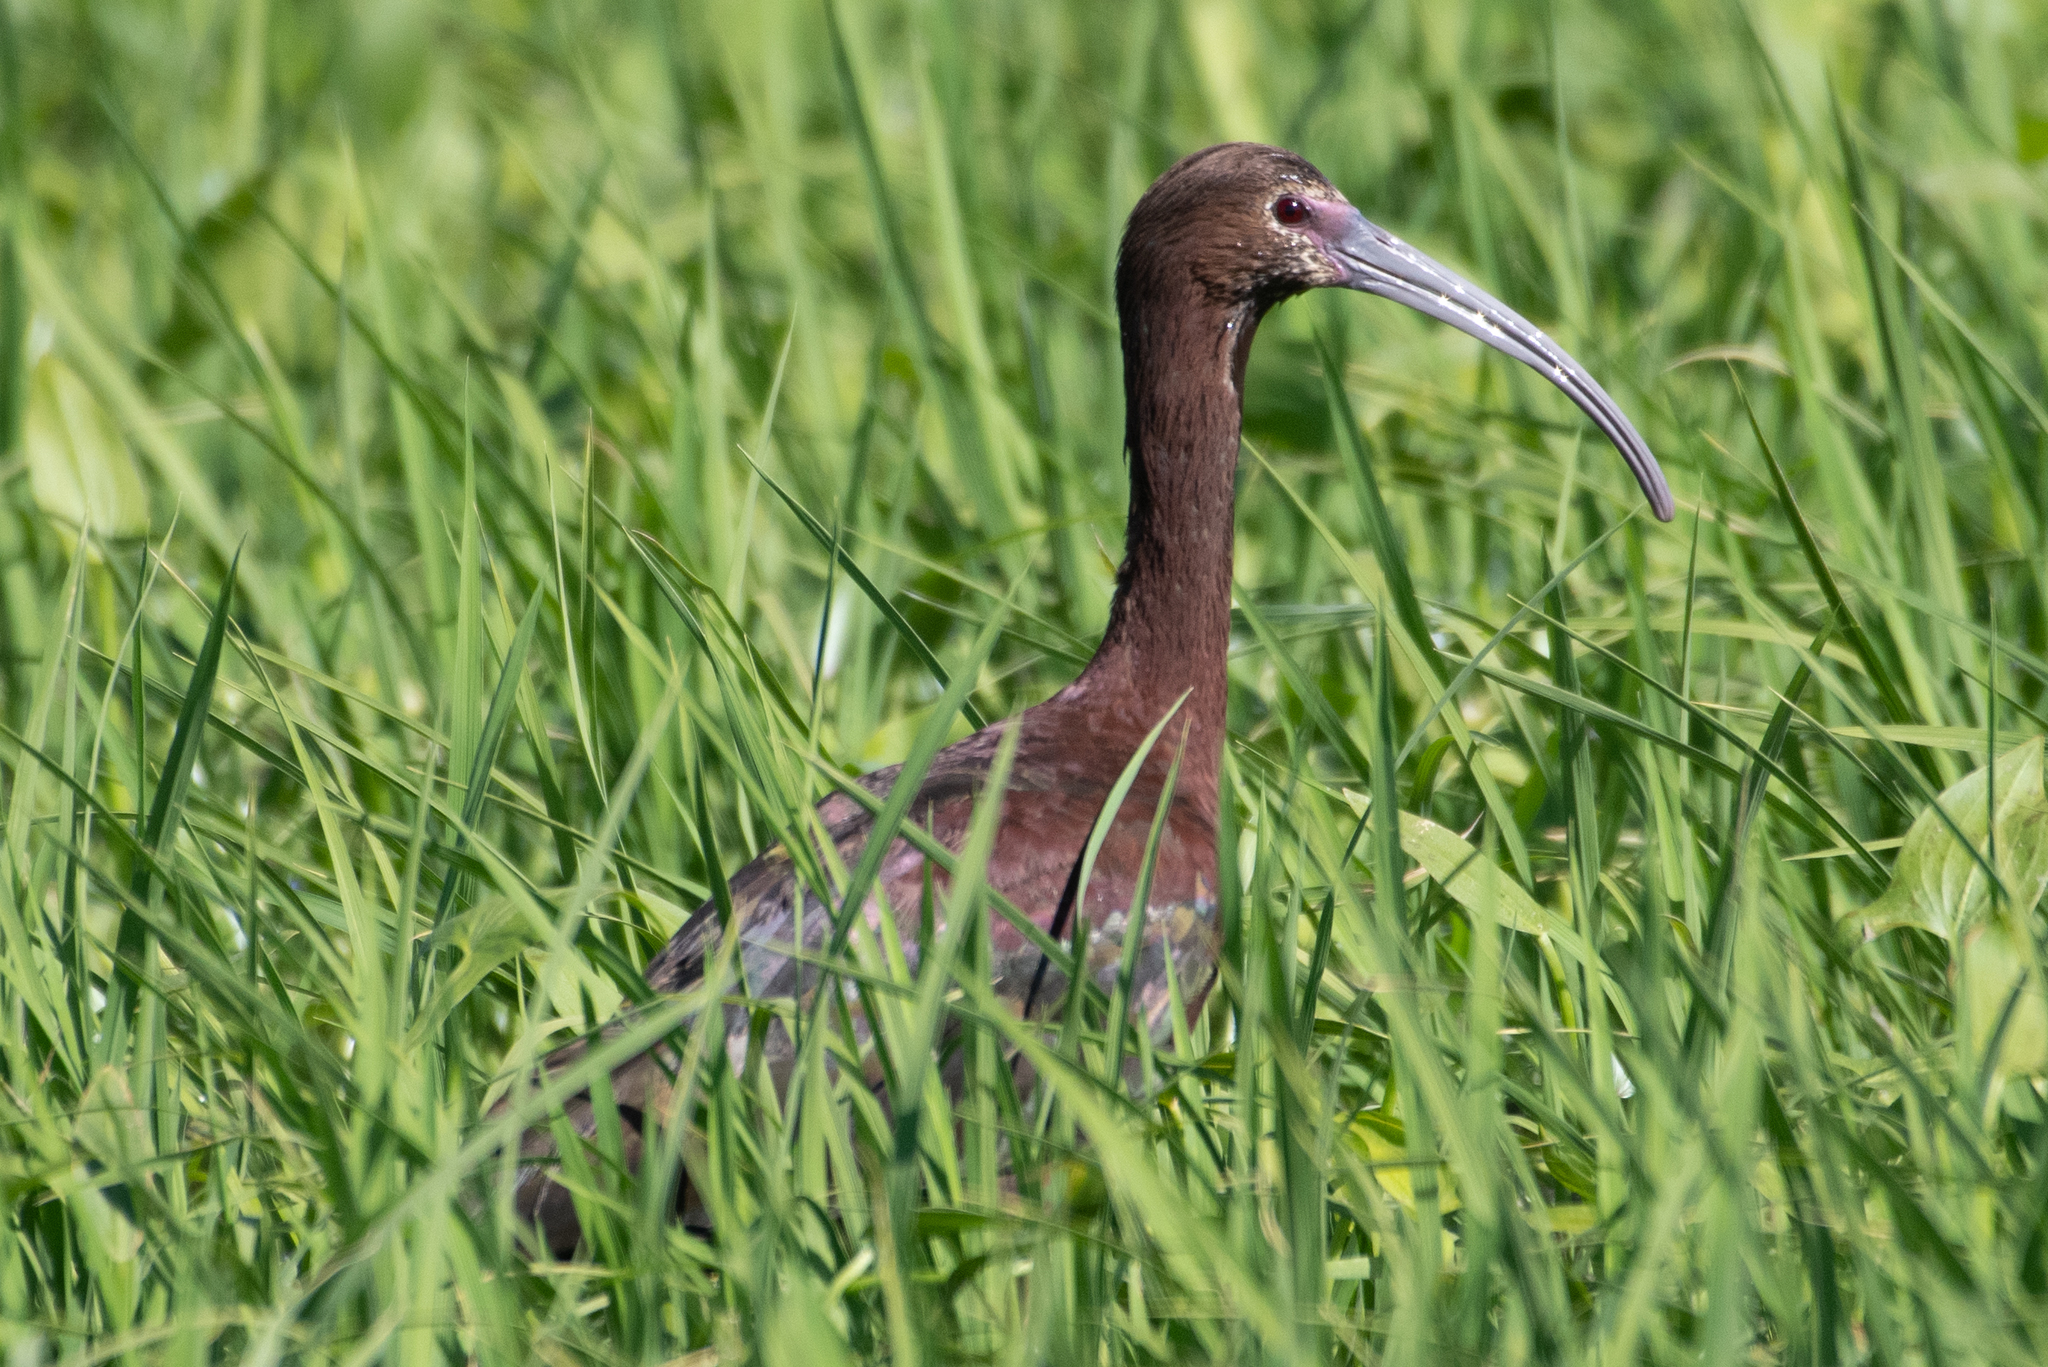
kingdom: Animalia
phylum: Chordata
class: Aves
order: Pelecaniformes
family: Threskiornithidae
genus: Plegadis
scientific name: Plegadis chihi
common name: White-faced ibis
